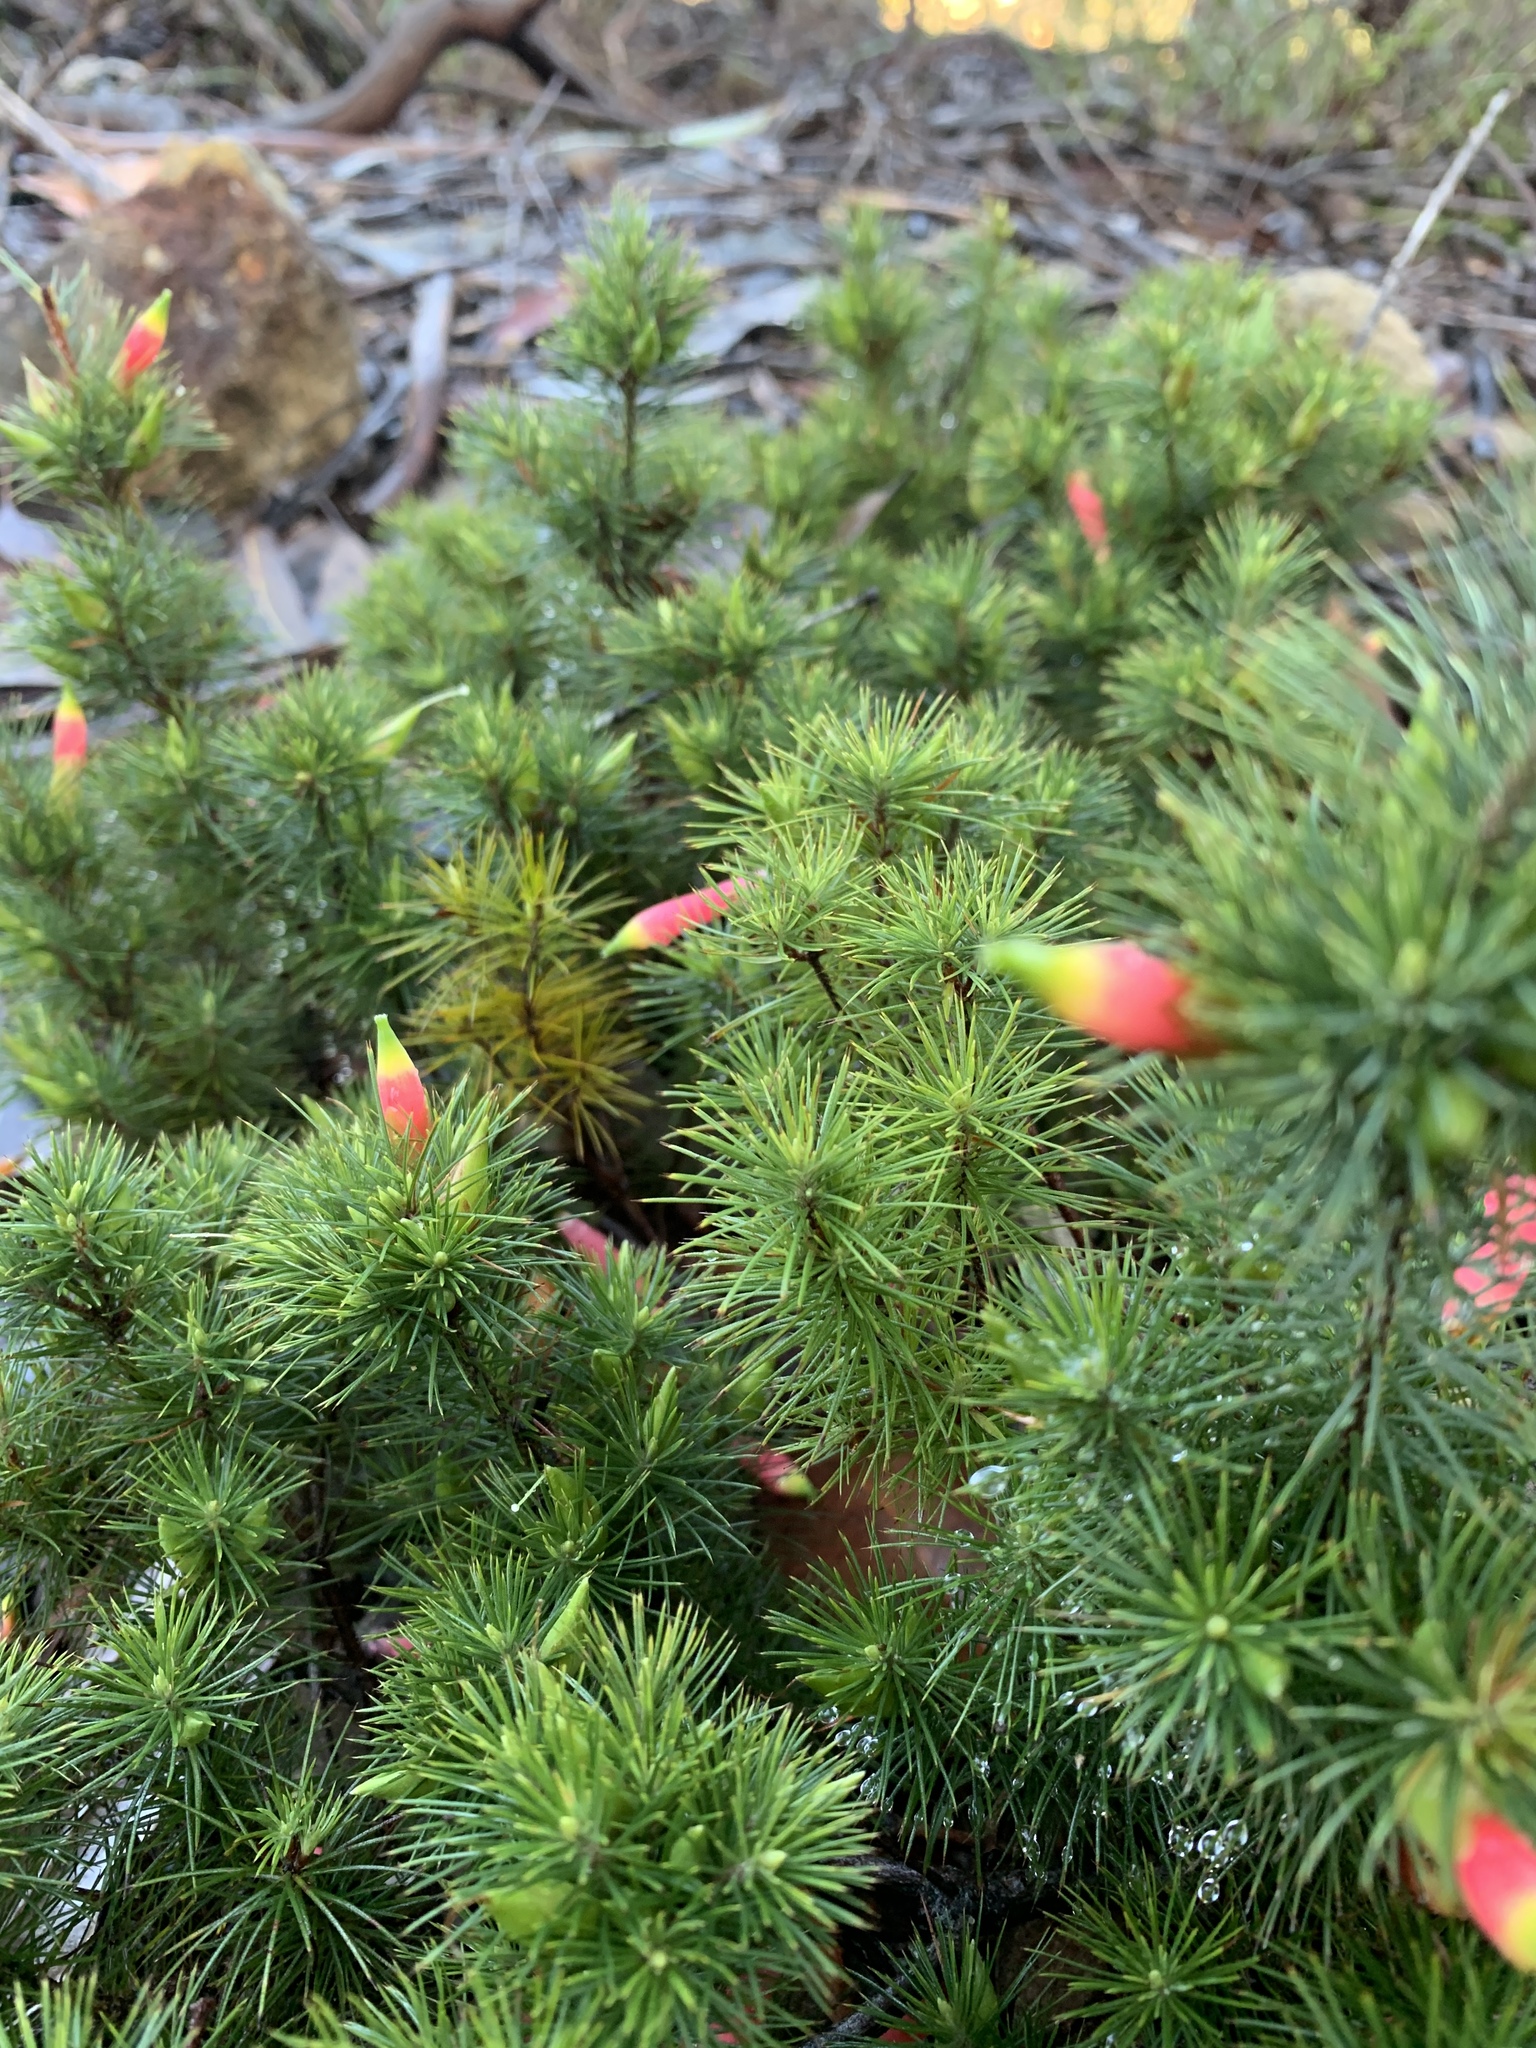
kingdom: Plantae
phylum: Tracheophyta
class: Magnoliopsida
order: Ericales
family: Ericaceae
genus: Stenanthera
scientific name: Stenanthera pinifolia
